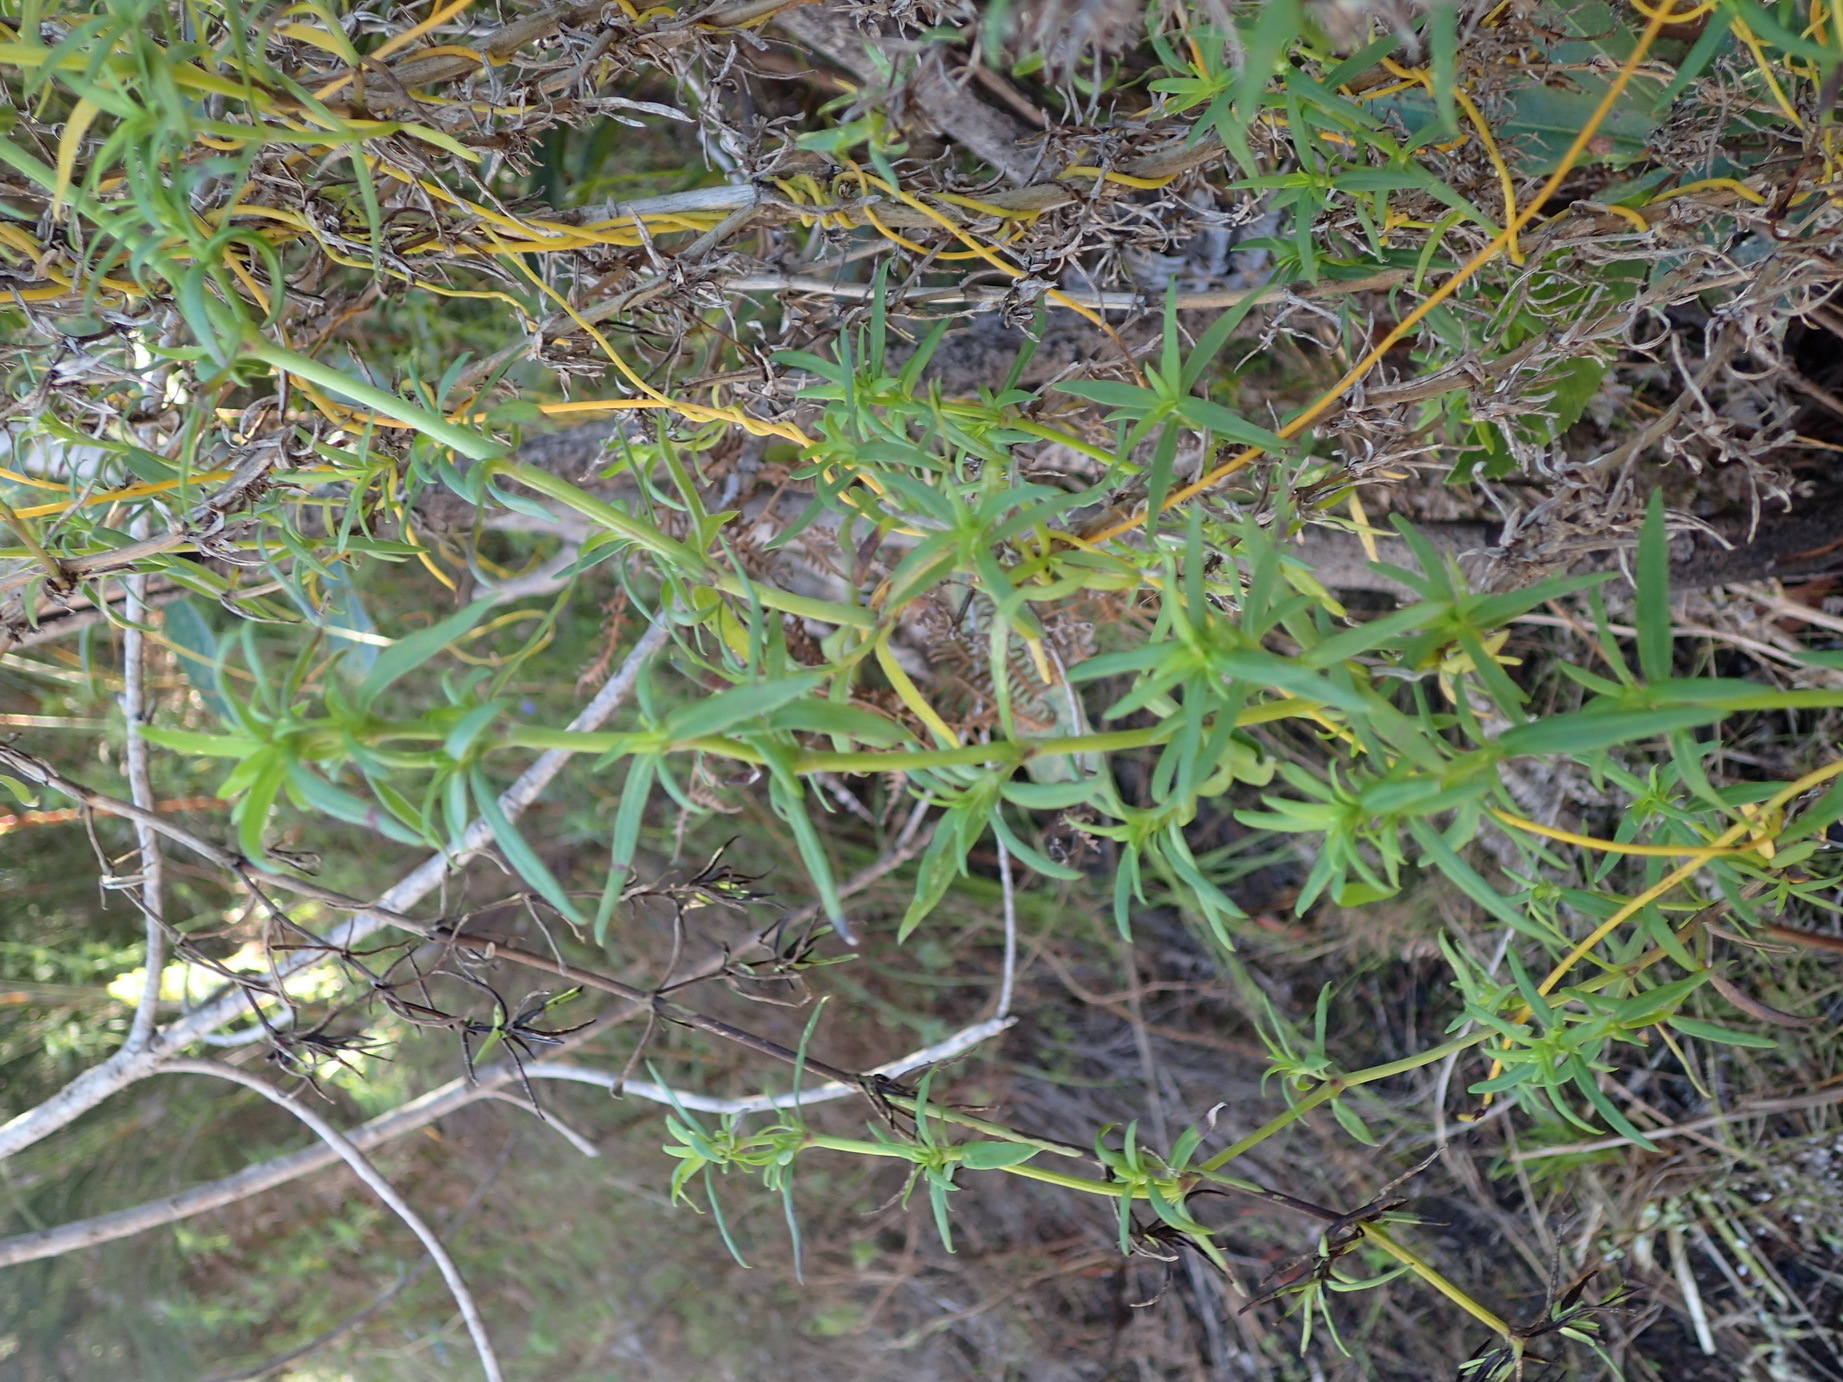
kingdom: Plantae
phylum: Tracheophyta
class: Magnoliopsida
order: Gentianales
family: Rubiaceae
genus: Carpacoce
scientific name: Carpacoce vaginellata
